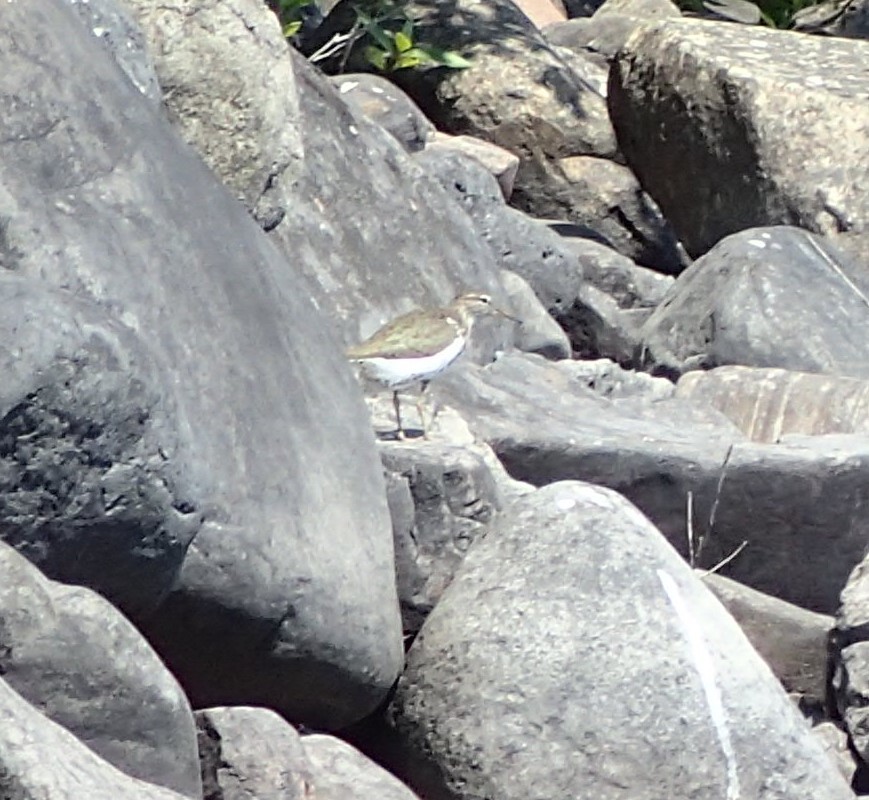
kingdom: Animalia
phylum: Chordata
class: Aves
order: Charadriiformes
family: Scolopacidae
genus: Actitis
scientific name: Actitis macularius
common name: Spotted sandpiper
